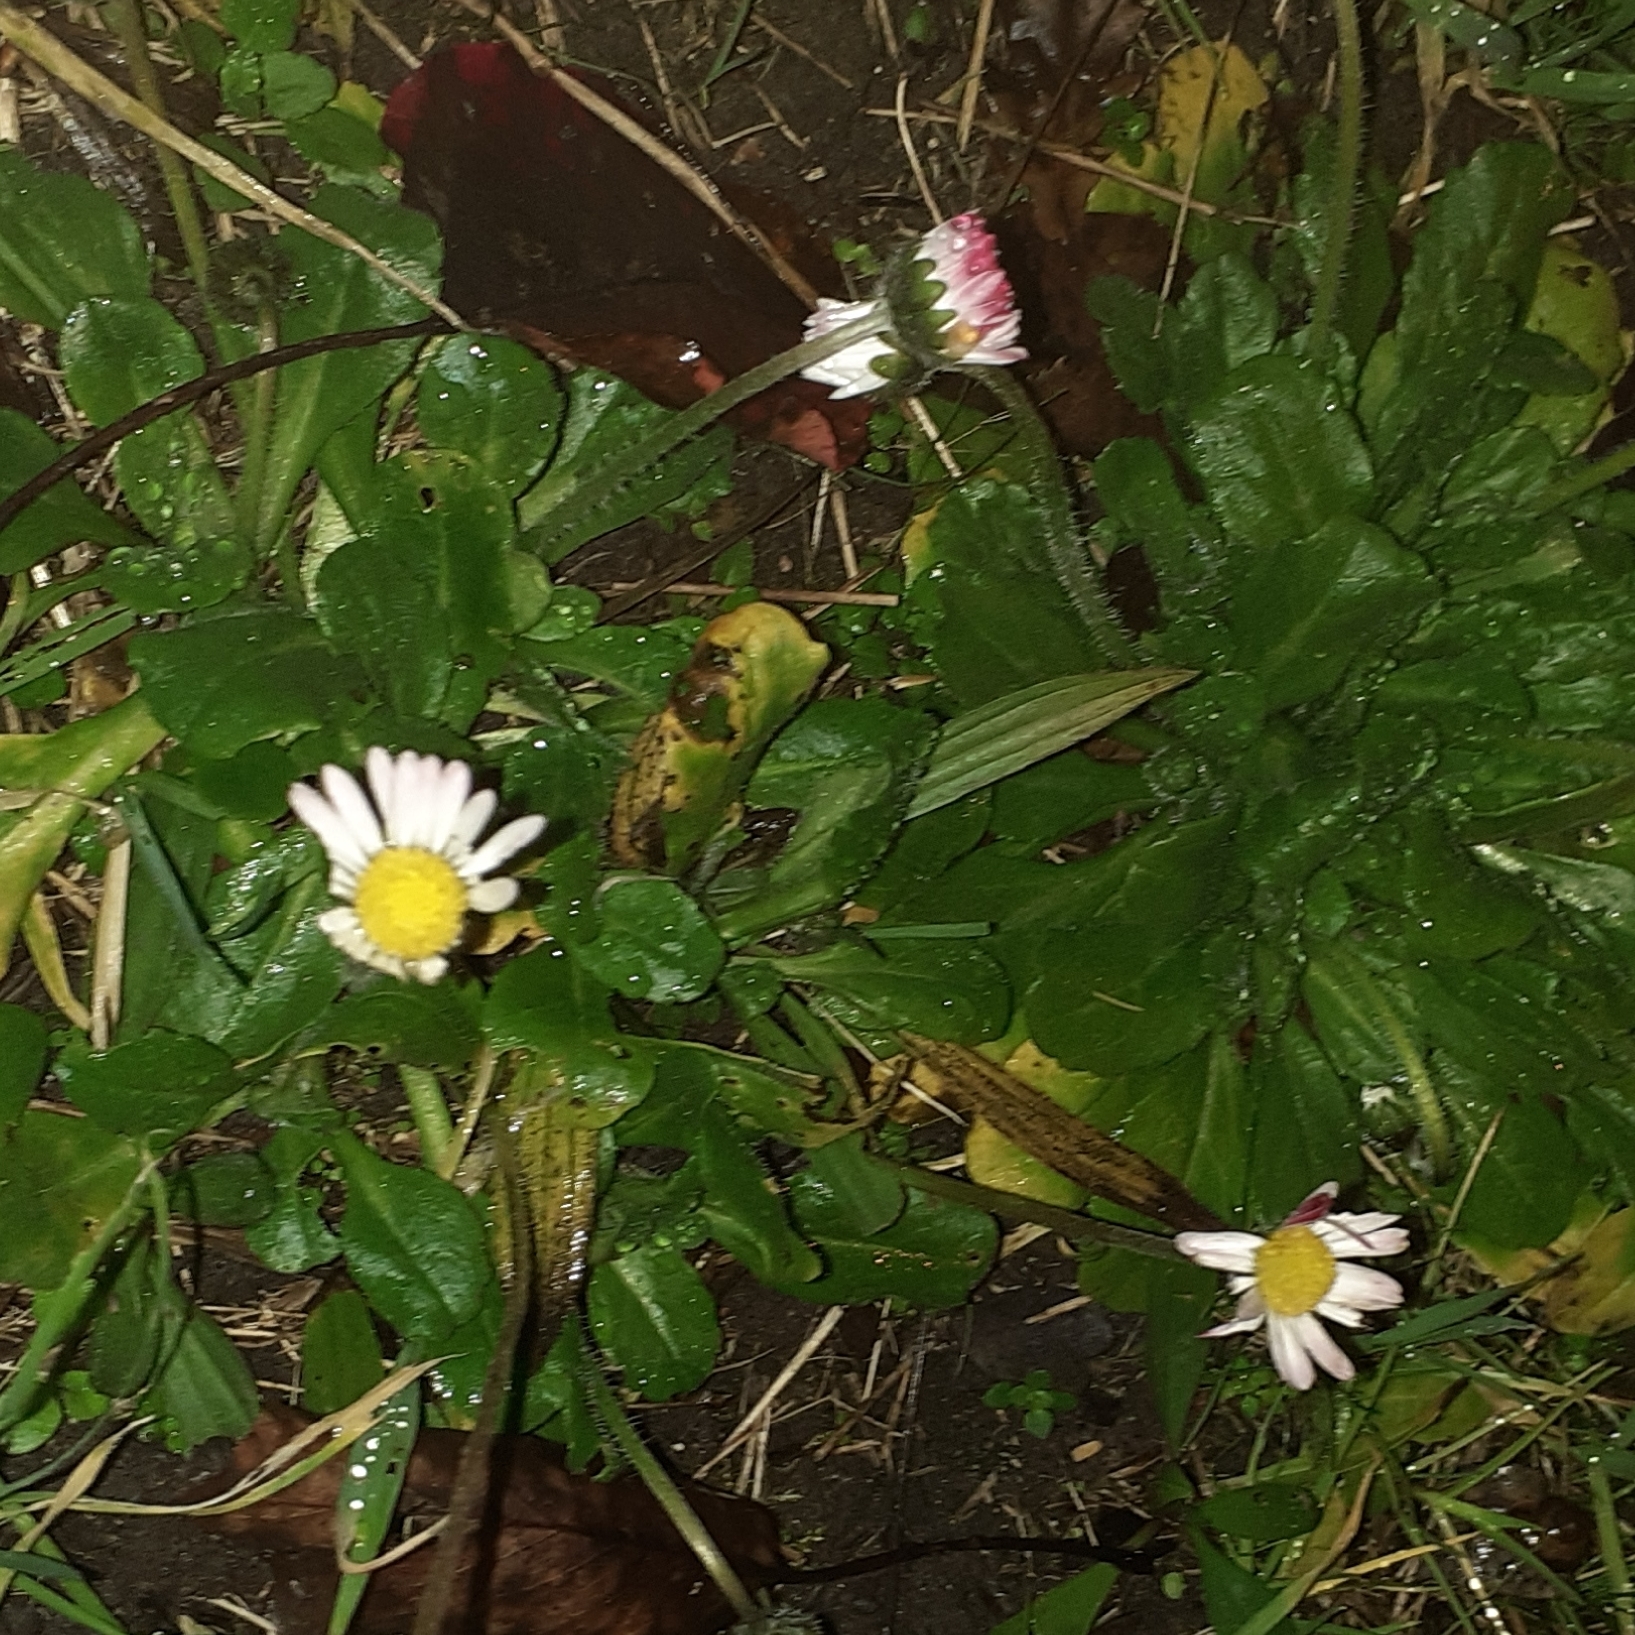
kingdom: Plantae
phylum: Tracheophyta
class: Magnoliopsida
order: Asterales
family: Asteraceae
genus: Bellis
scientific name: Bellis perennis
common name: Lawndaisy
